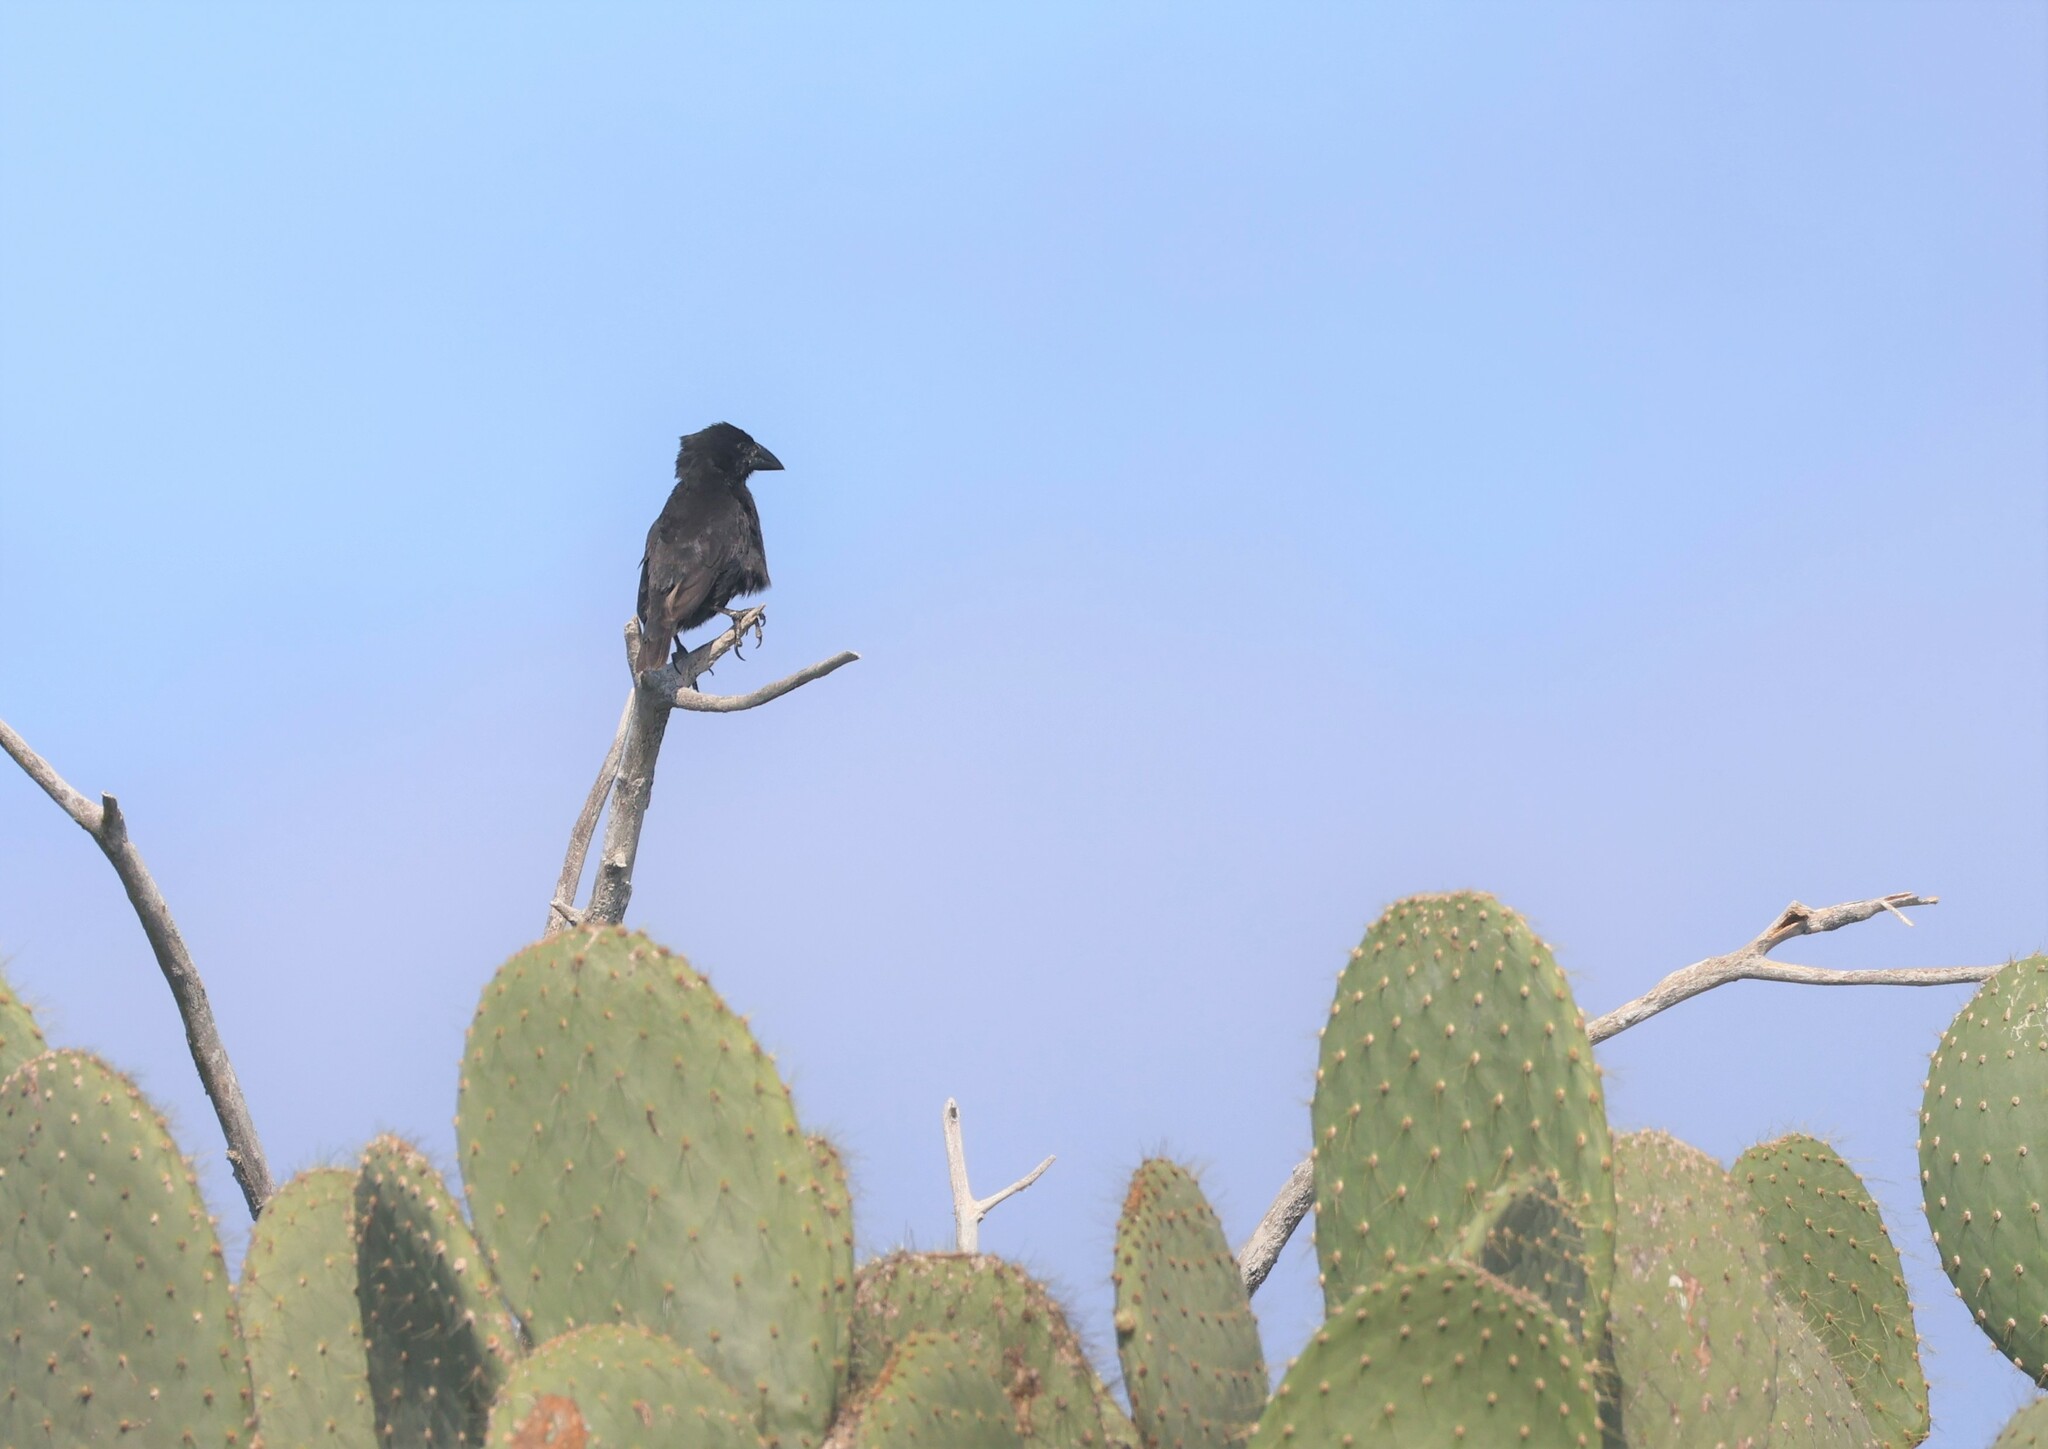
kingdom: Animalia
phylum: Chordata
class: Aves
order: Passeriformes
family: Thraupidae
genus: Geospiza
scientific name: Geospiza propinqua
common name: Genovesa cactus-finch
